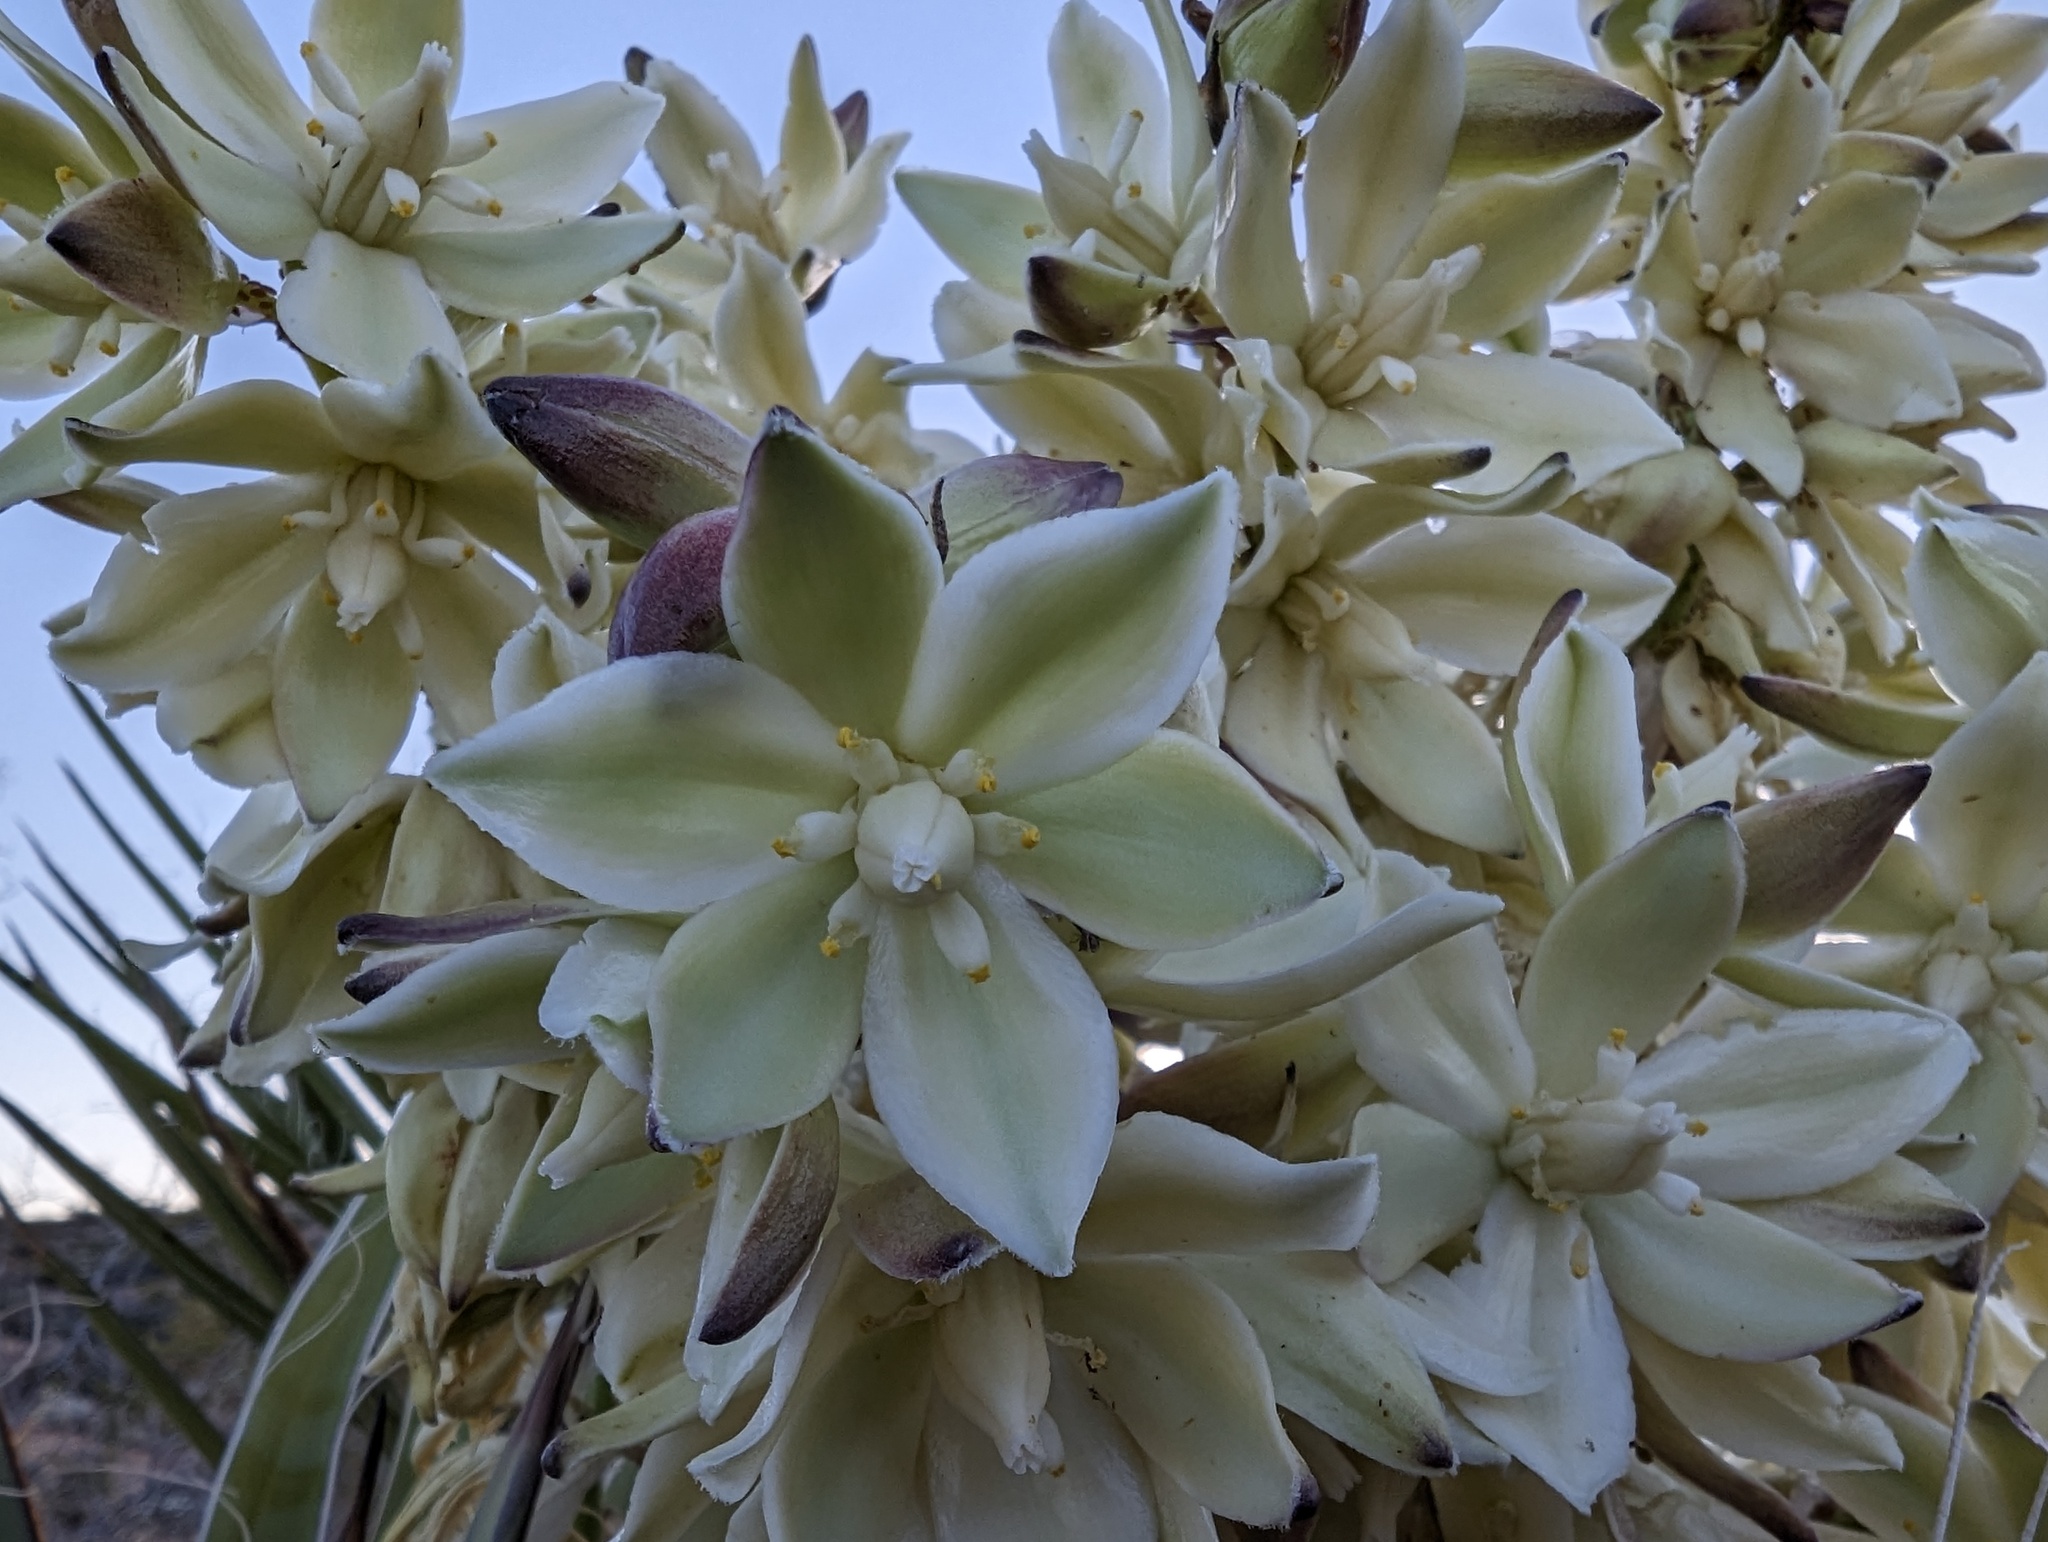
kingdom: Plantae
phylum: Tracheophyta
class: Liliopsida
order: Asparagales
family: Asparagaceae
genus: Yucca
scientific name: Yucca schidigera
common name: Mojave yucca
